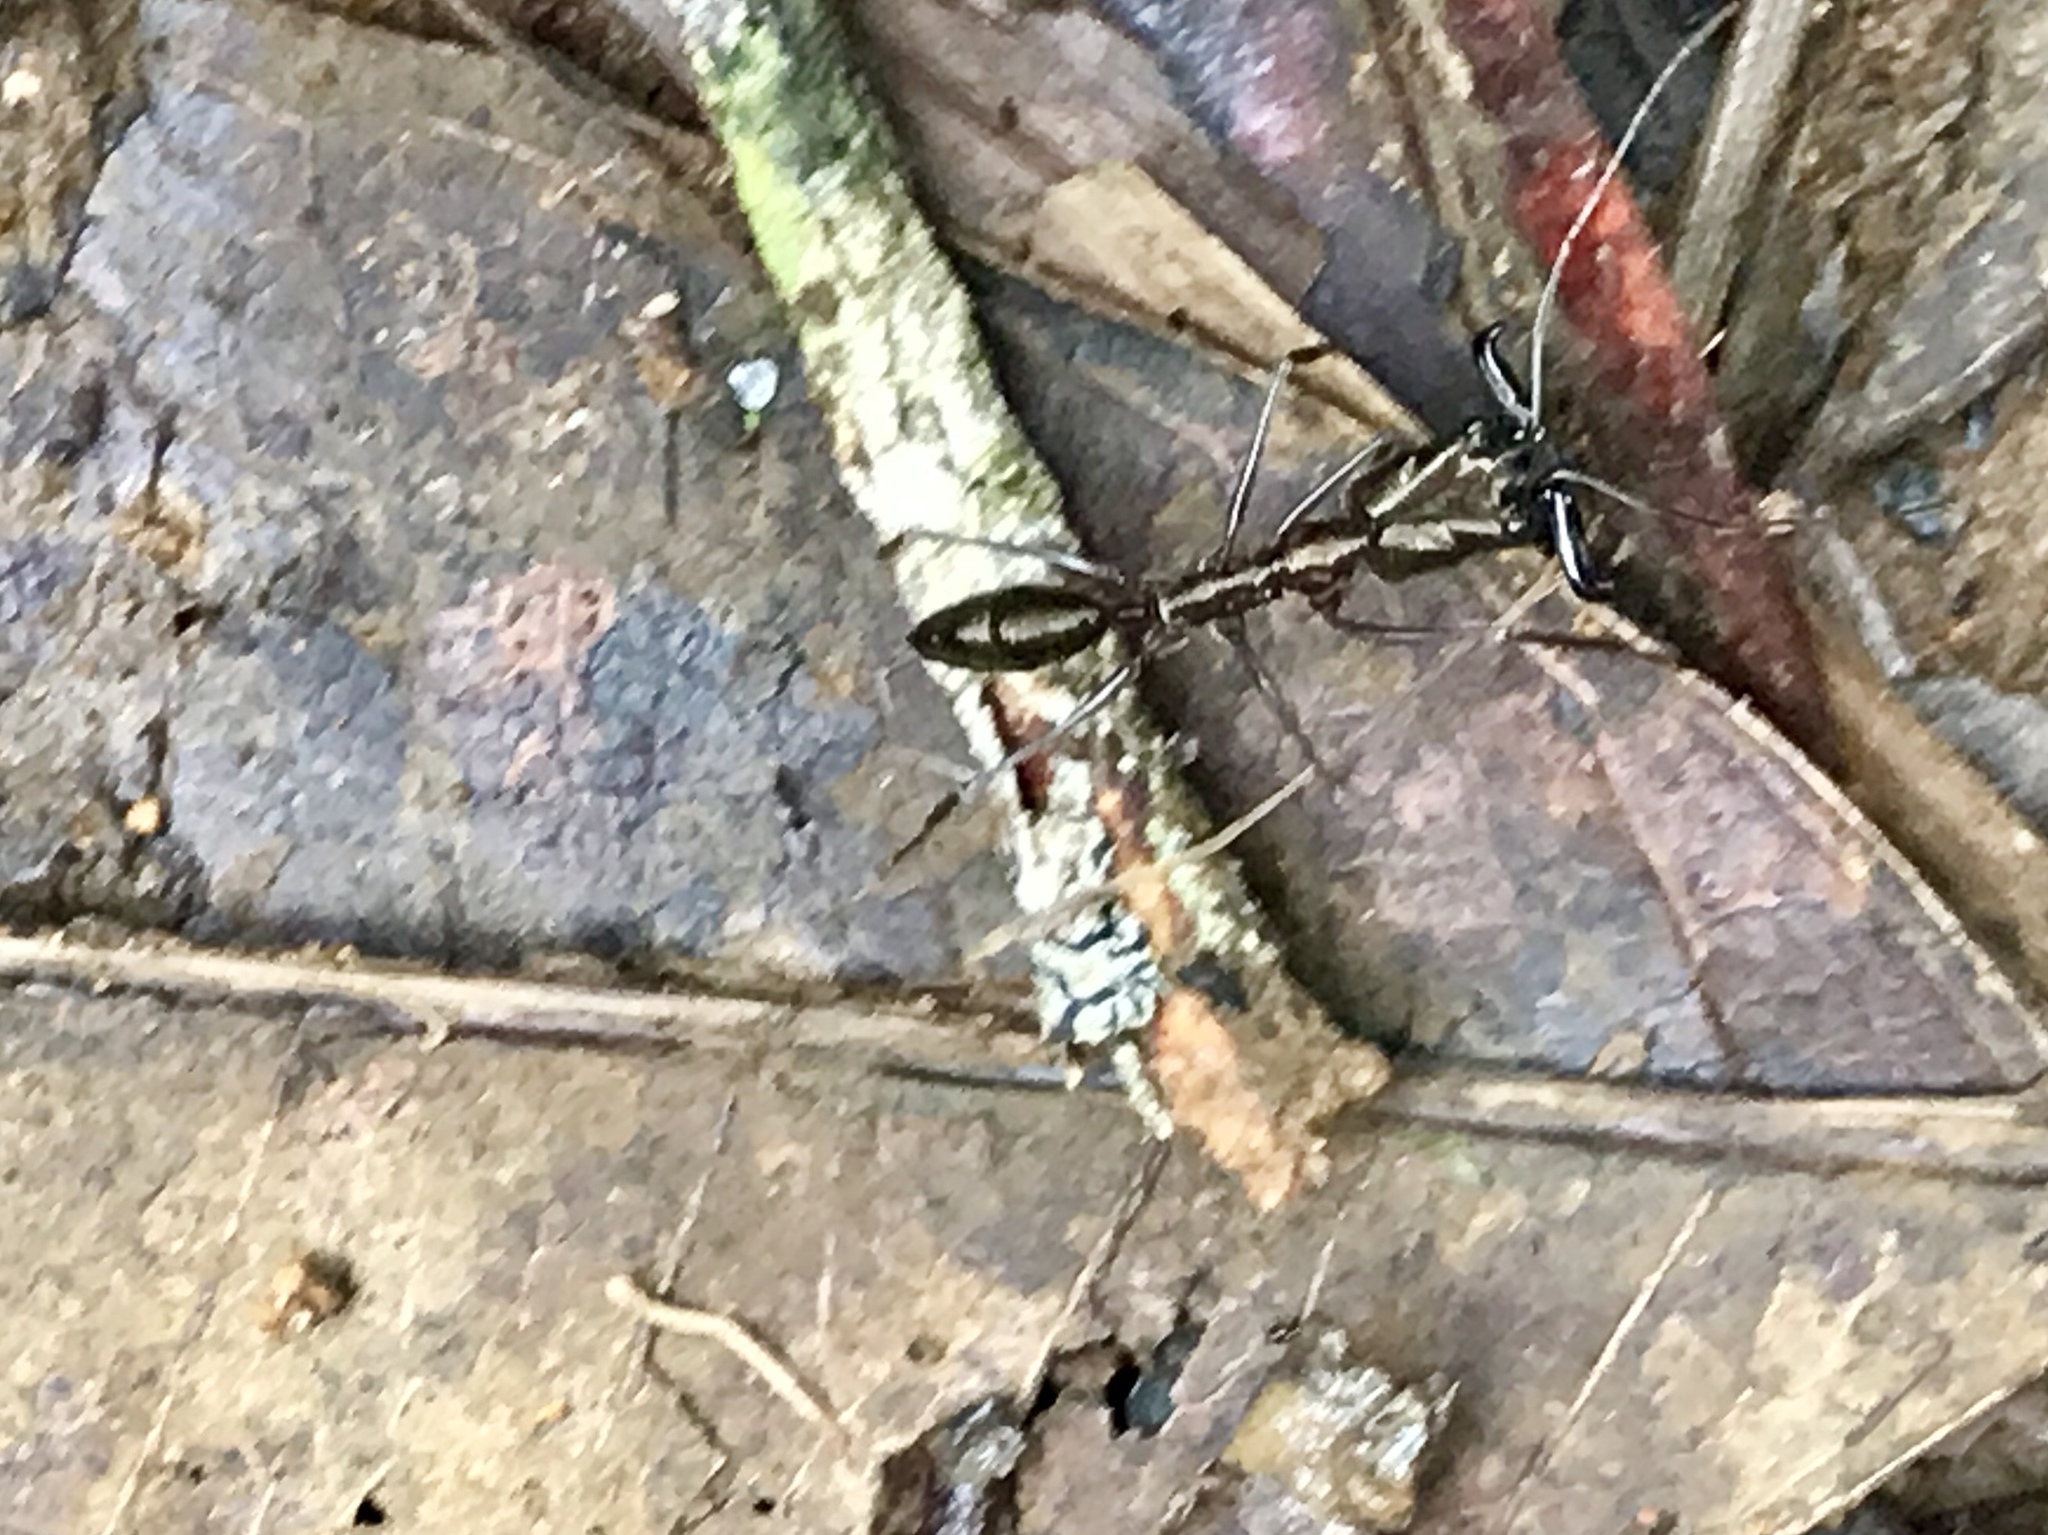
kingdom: Animalia
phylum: Arthropoda
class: Insecta
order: Hymenoptera
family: Formicidae
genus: Odontomachus
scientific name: Odontomachus chelifer
